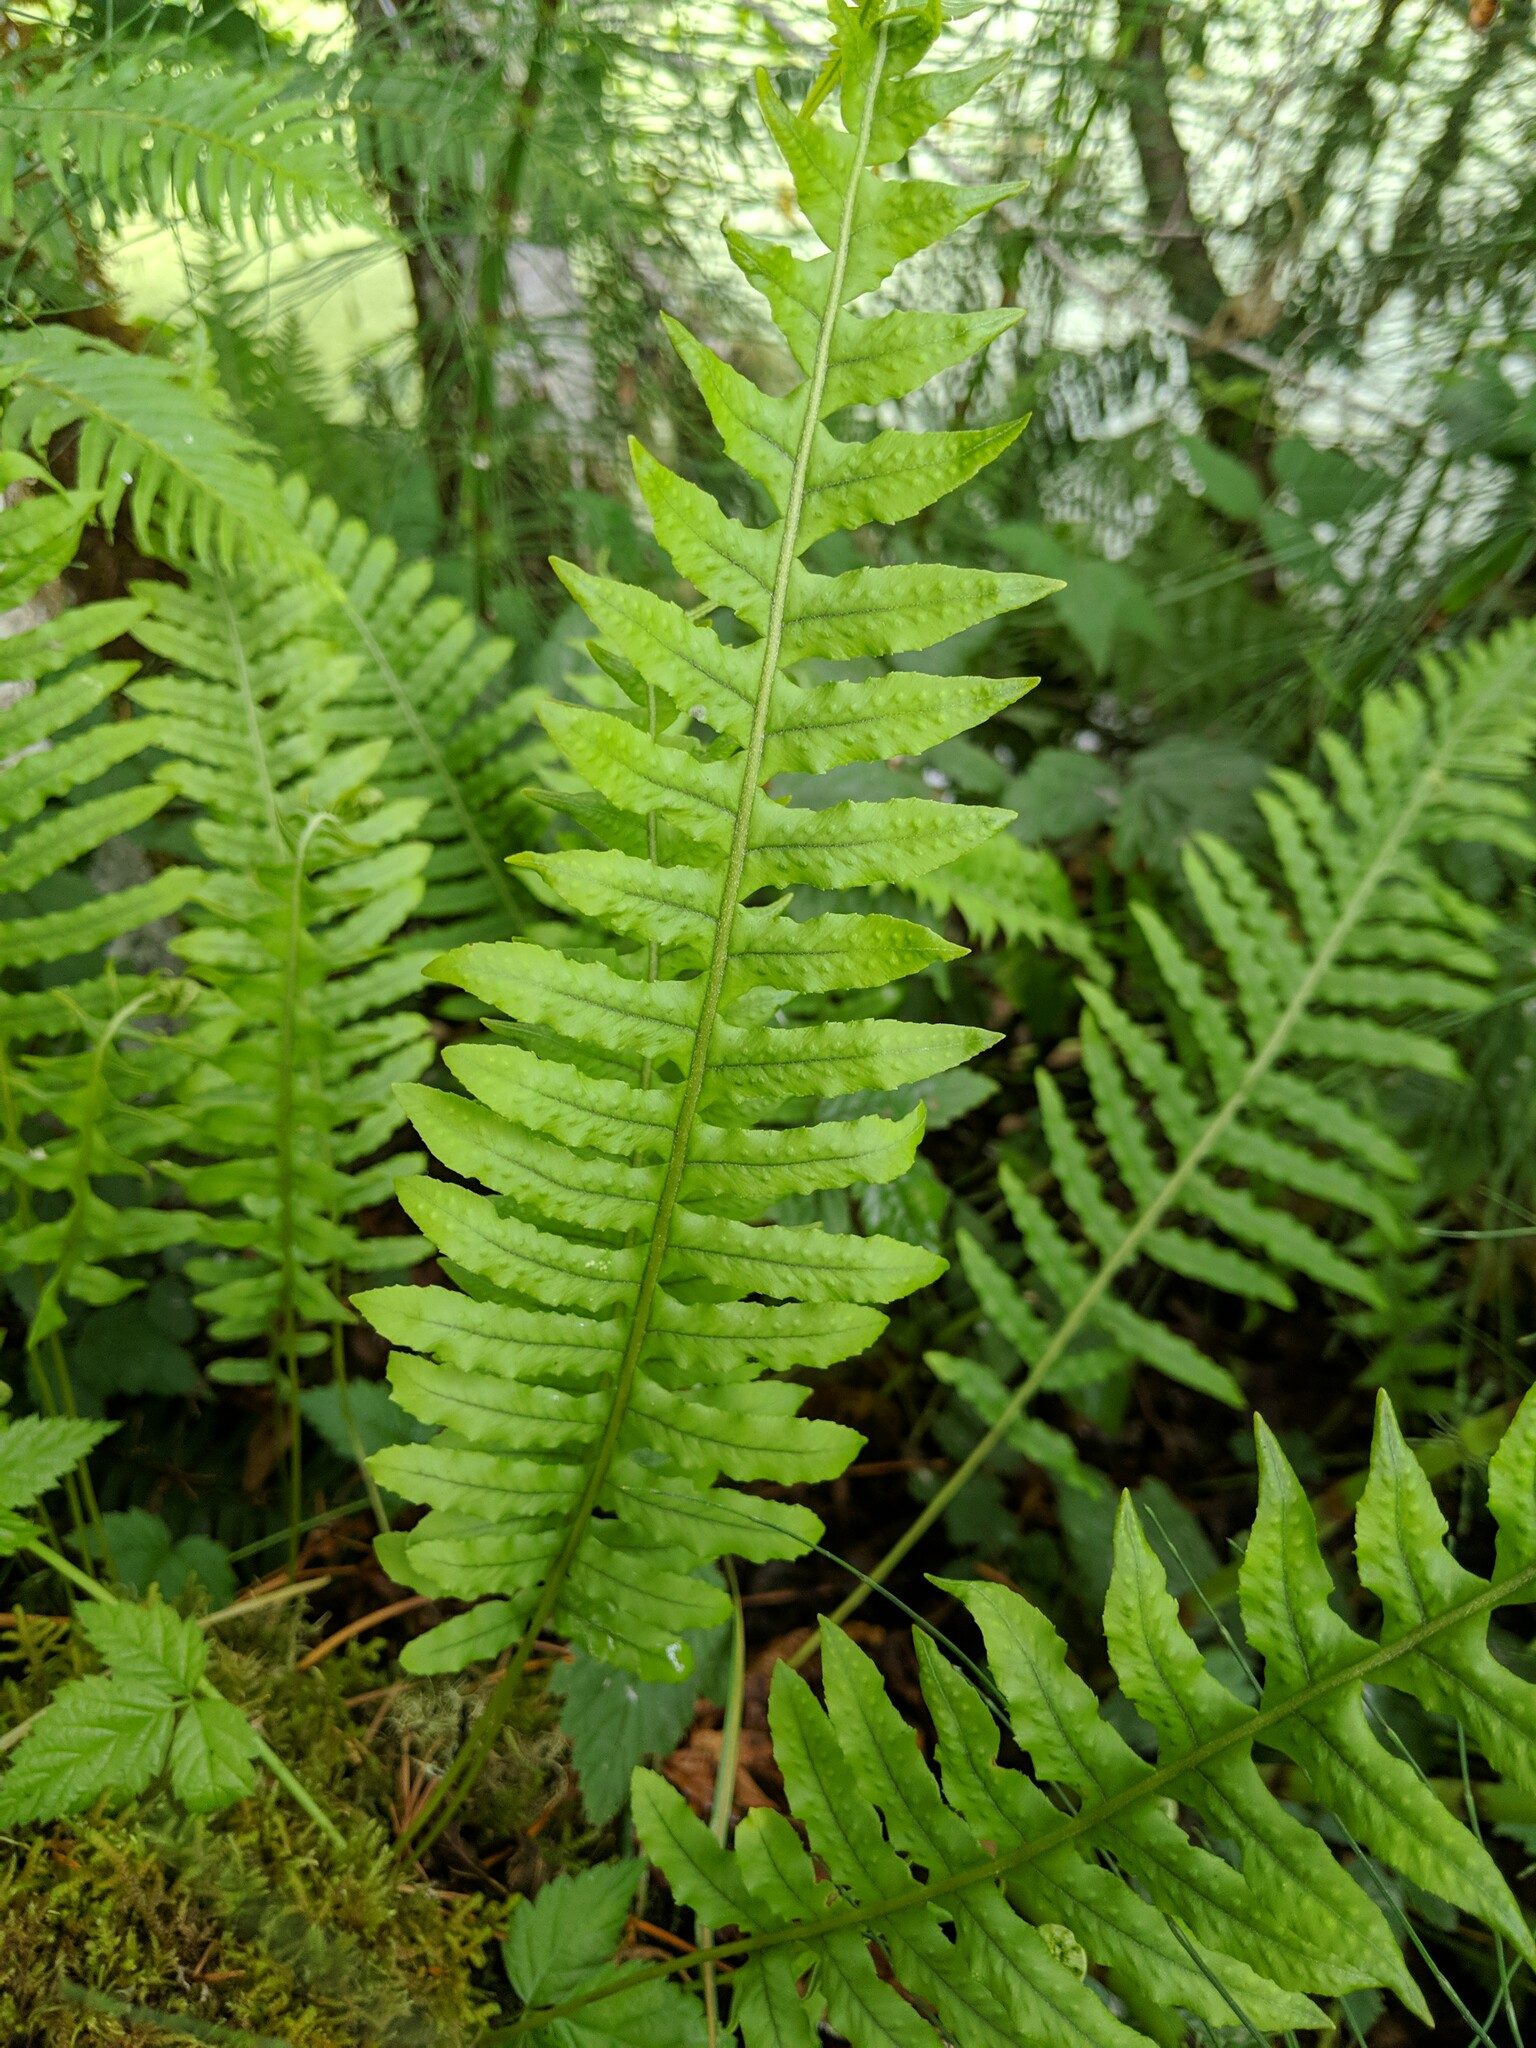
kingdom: Plantae
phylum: Tracheophyta
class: Polypodiopsida
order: Polypodiales
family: Polypodiaceae
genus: Polypodium
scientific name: Polypodium glycyrrhiza
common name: Licorice fern
